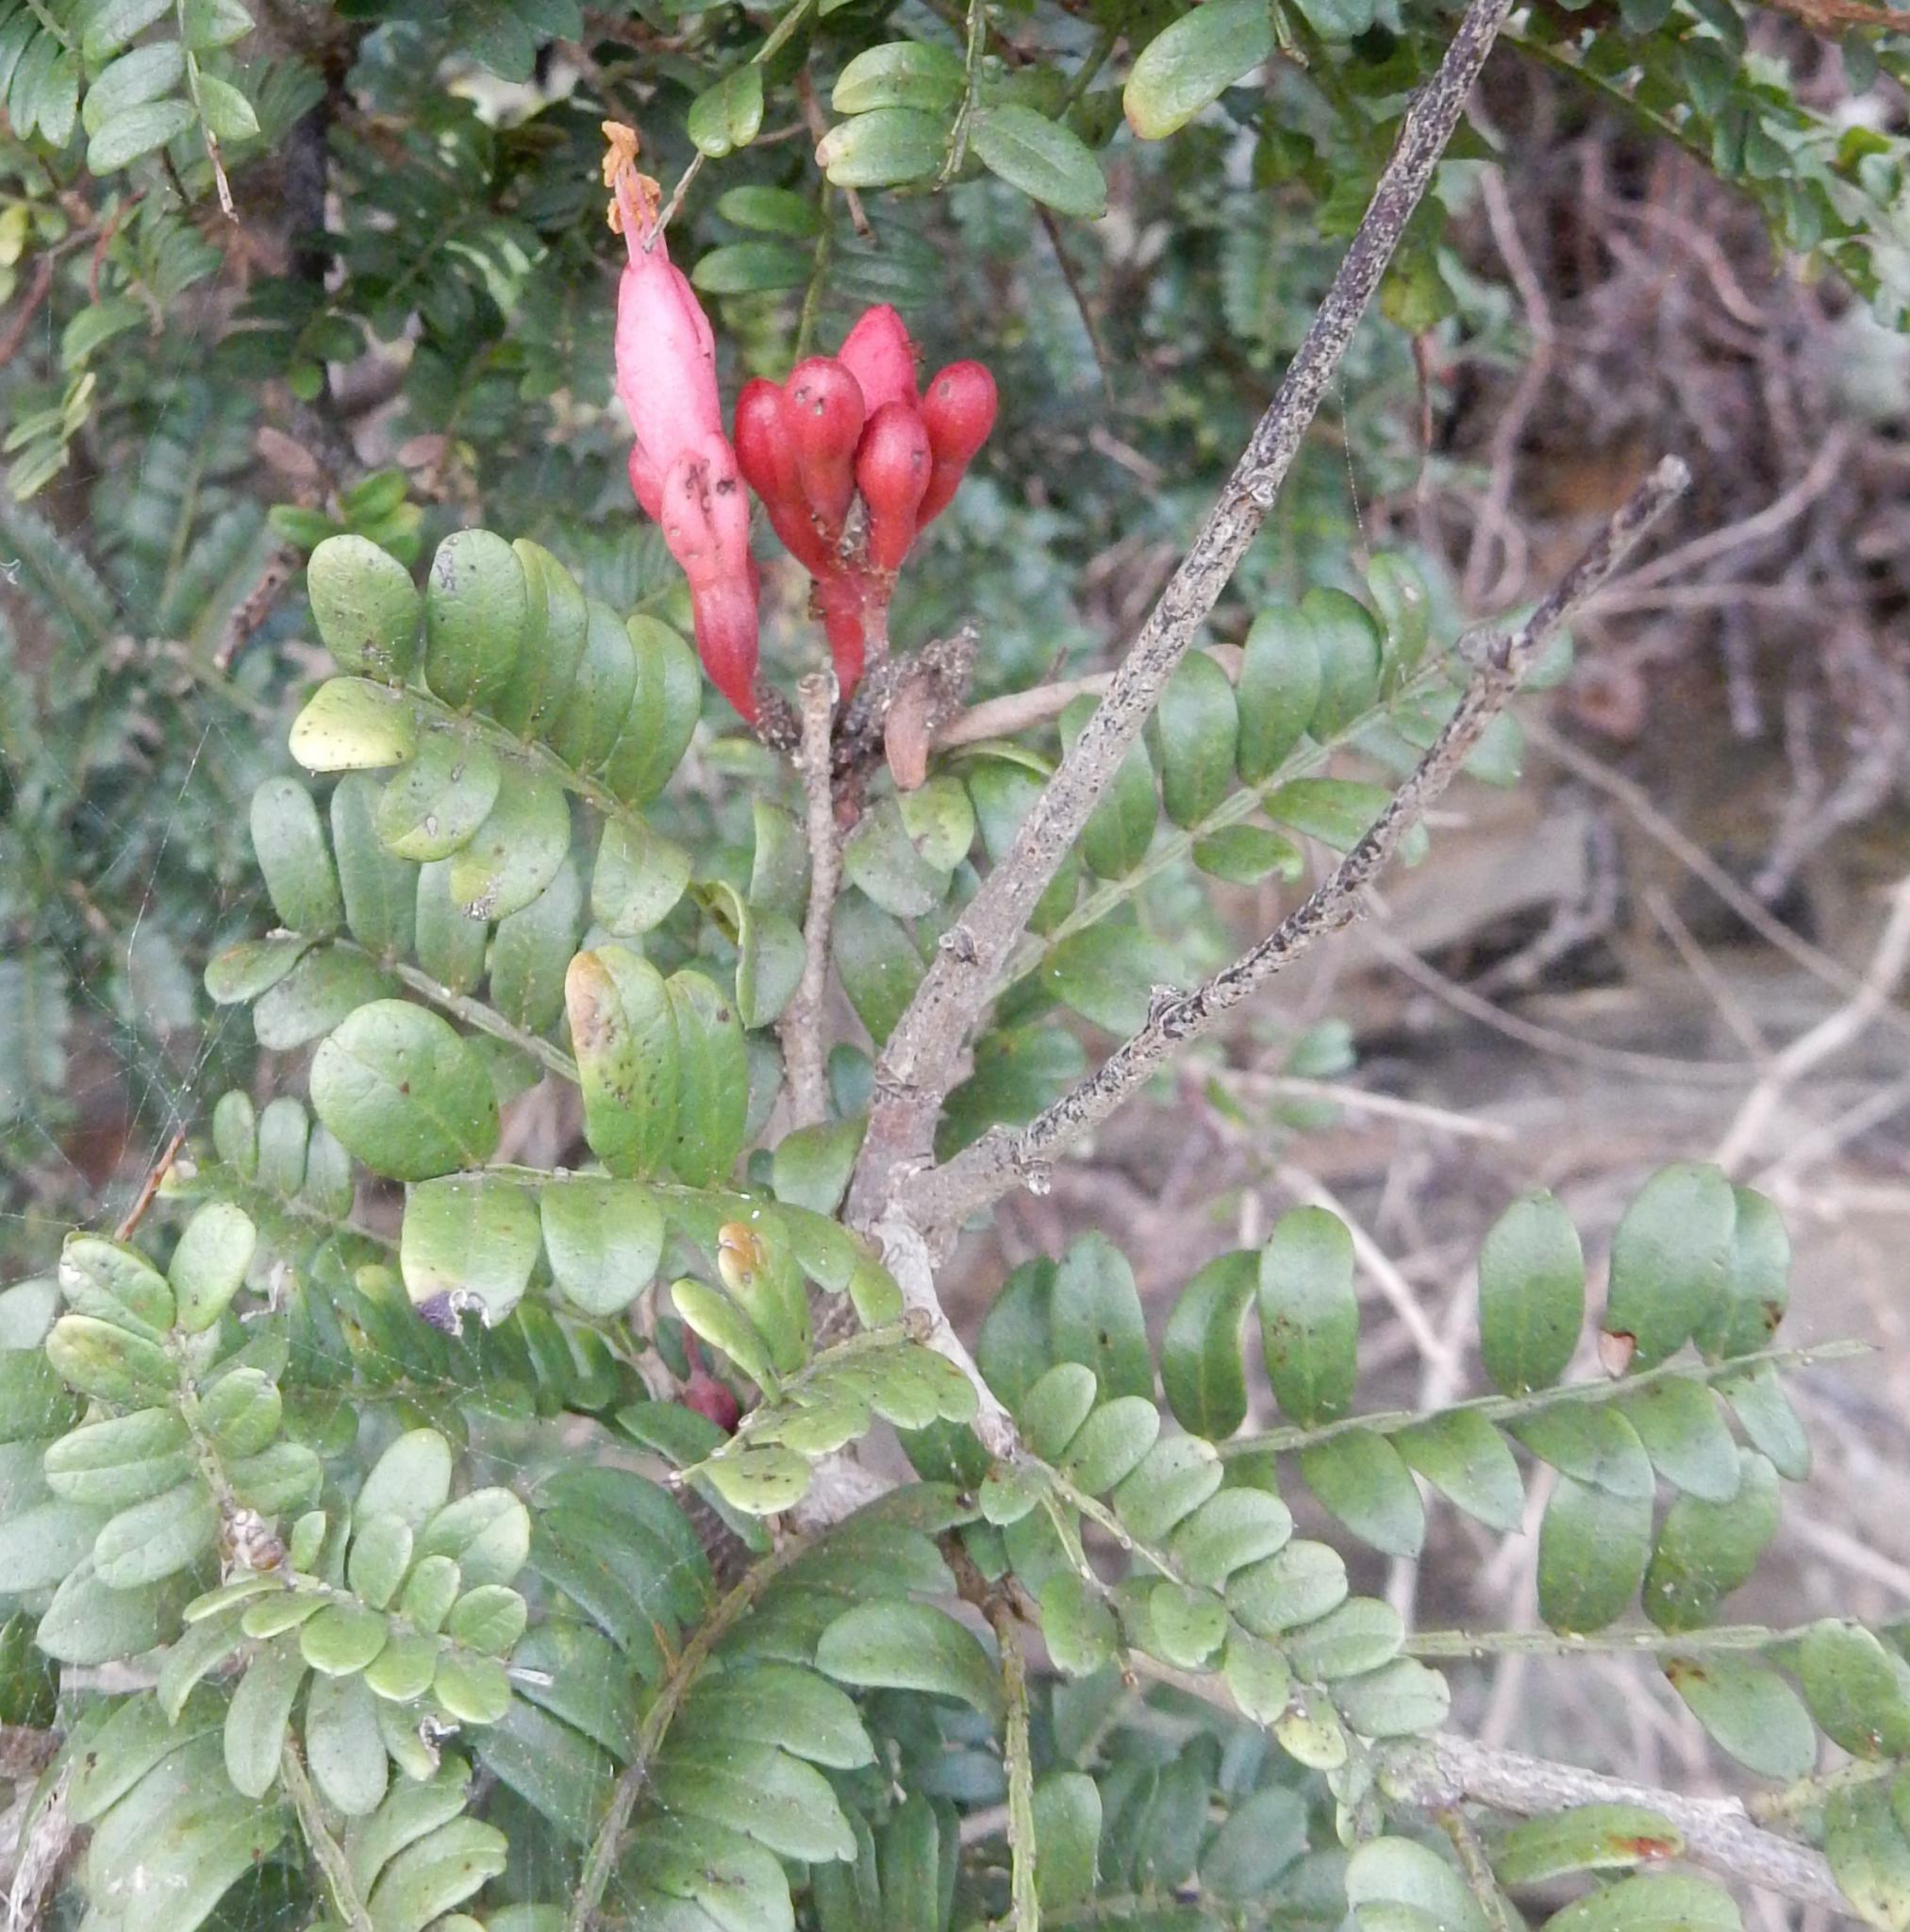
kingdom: Plantae
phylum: Tracheophyta
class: Magnoliopsida
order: Fabales
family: Fabaceae
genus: Schotia
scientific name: Schotia afra
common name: Hottentot's bean
